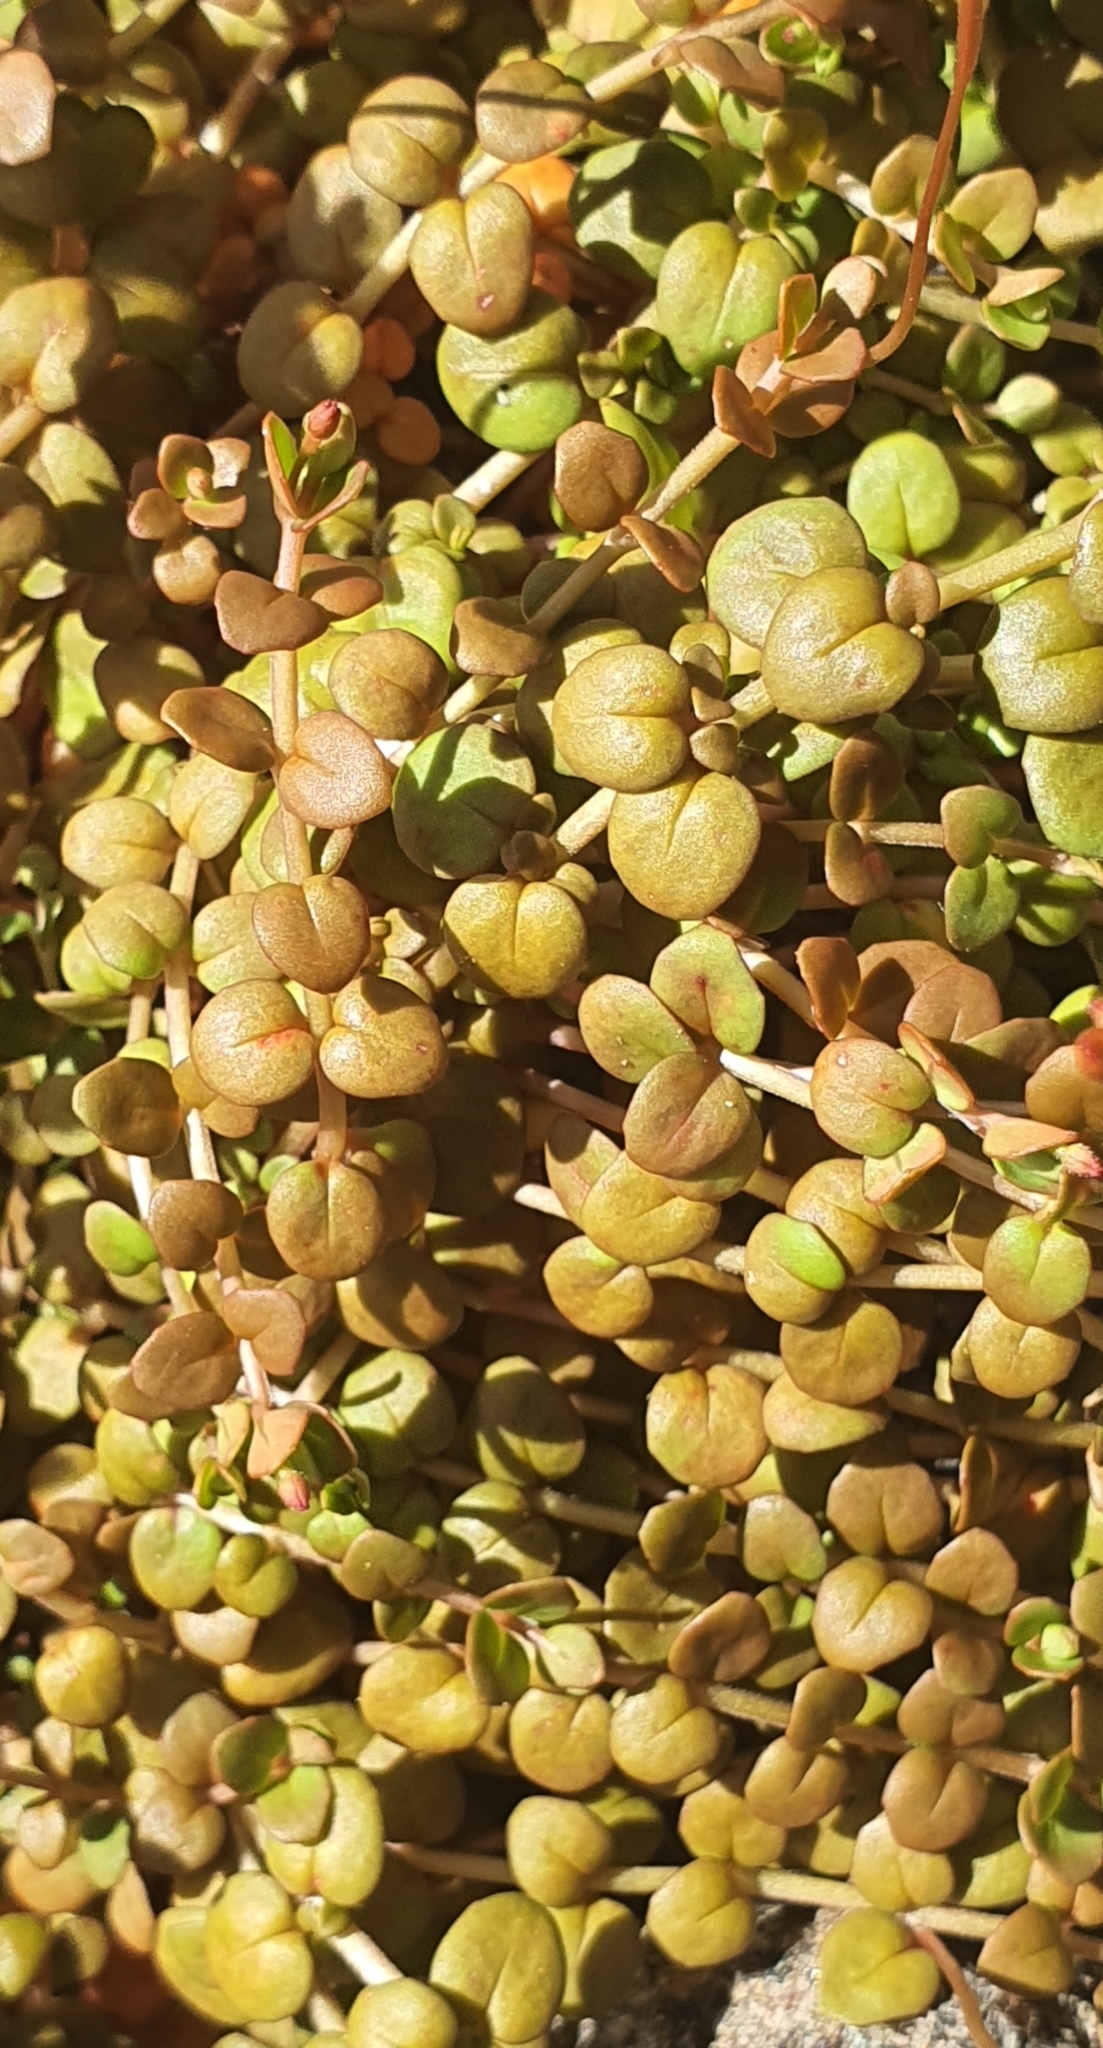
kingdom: Plantae
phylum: Tracheophyta
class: Magnoliopsida
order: Myrtales
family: Onagraceae
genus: Epilobium
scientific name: Epilobium brunnescens
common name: New zealand willowherb
